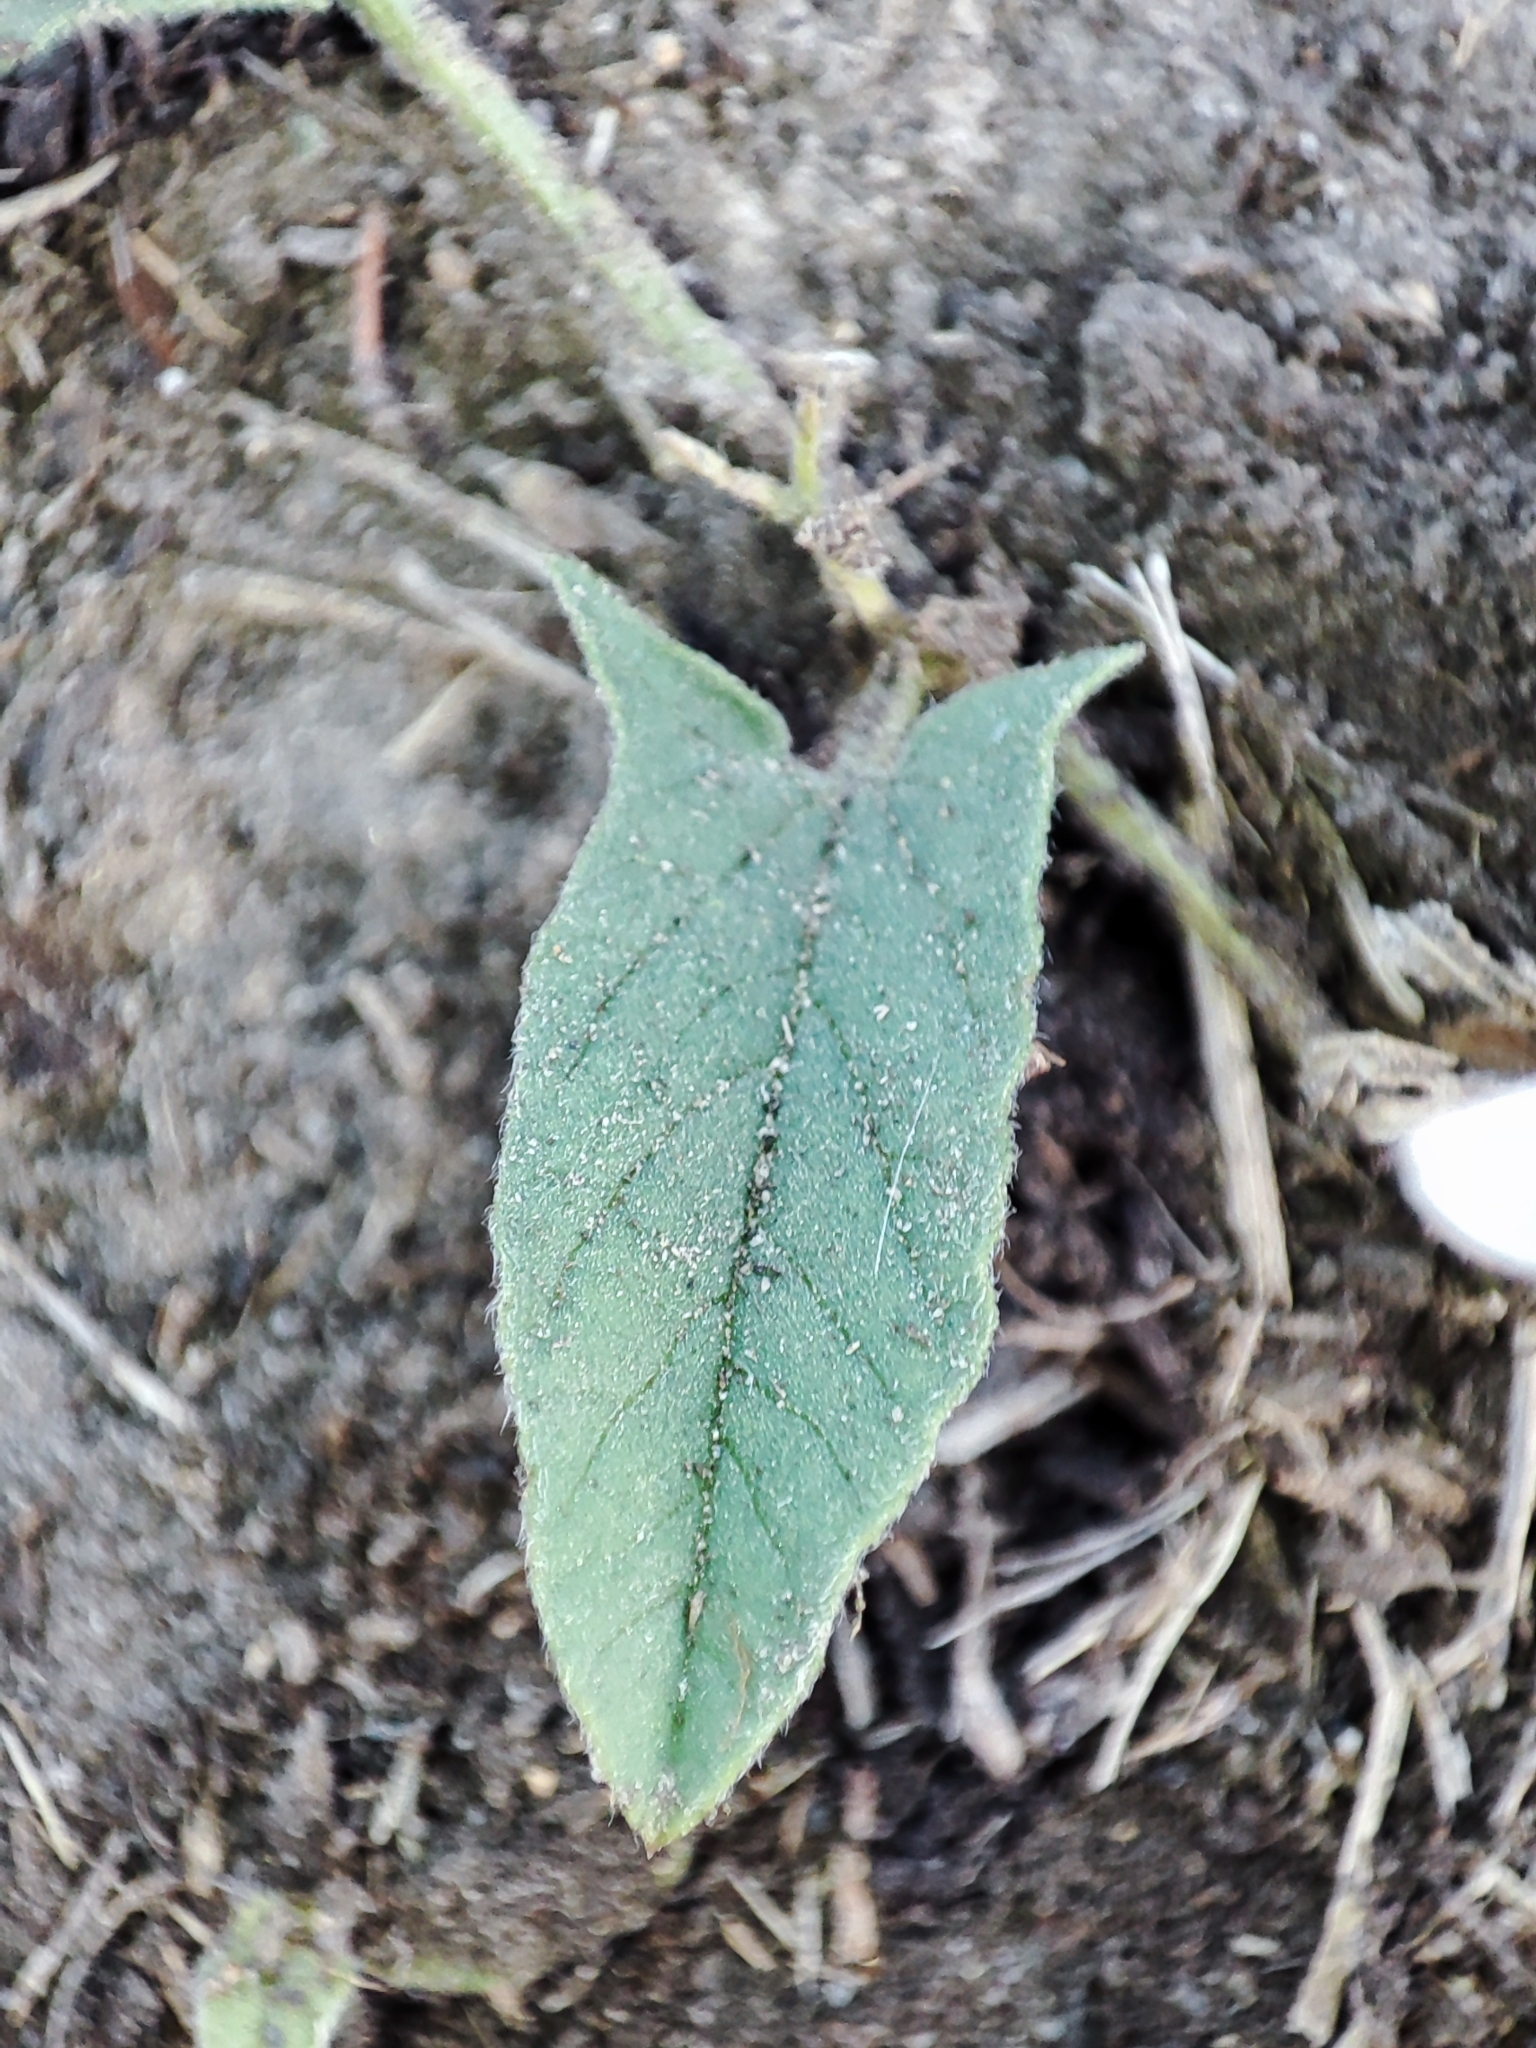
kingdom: Plantae
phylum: Tracheophyta
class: Magnoliopsida
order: Solanales
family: Convolvulaceae
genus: Convolvulus
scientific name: Convolvulus arvensis
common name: Field bindweed
